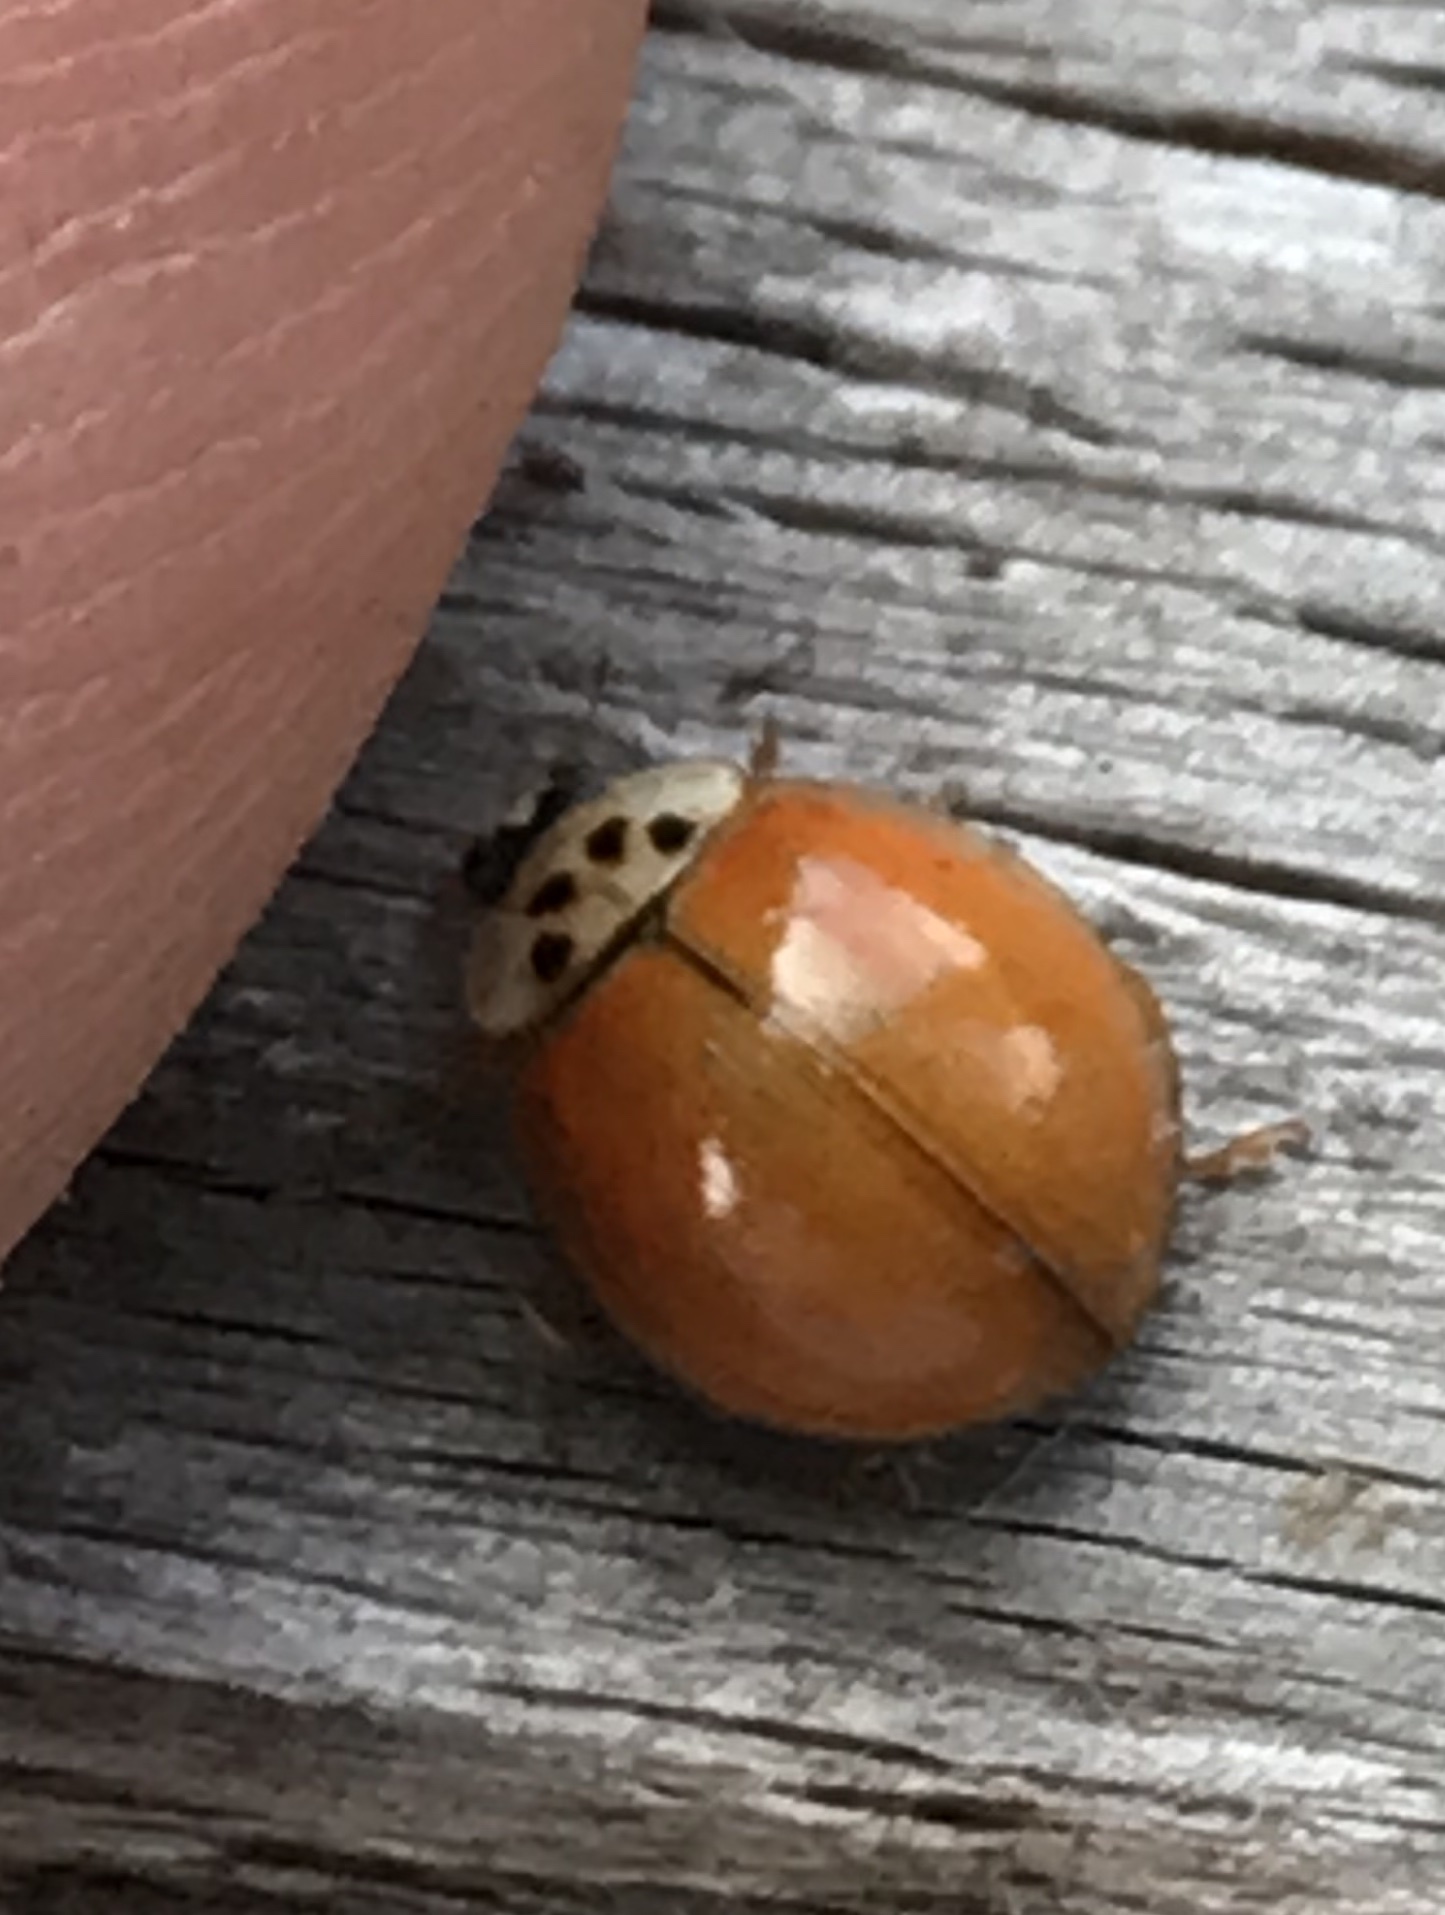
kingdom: Animalia
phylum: Arthropoda
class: Insecta
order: Coleoptera
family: Coccinellidae
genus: Harmonia
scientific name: Harmonia axyridis
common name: Harlequin ladybird
